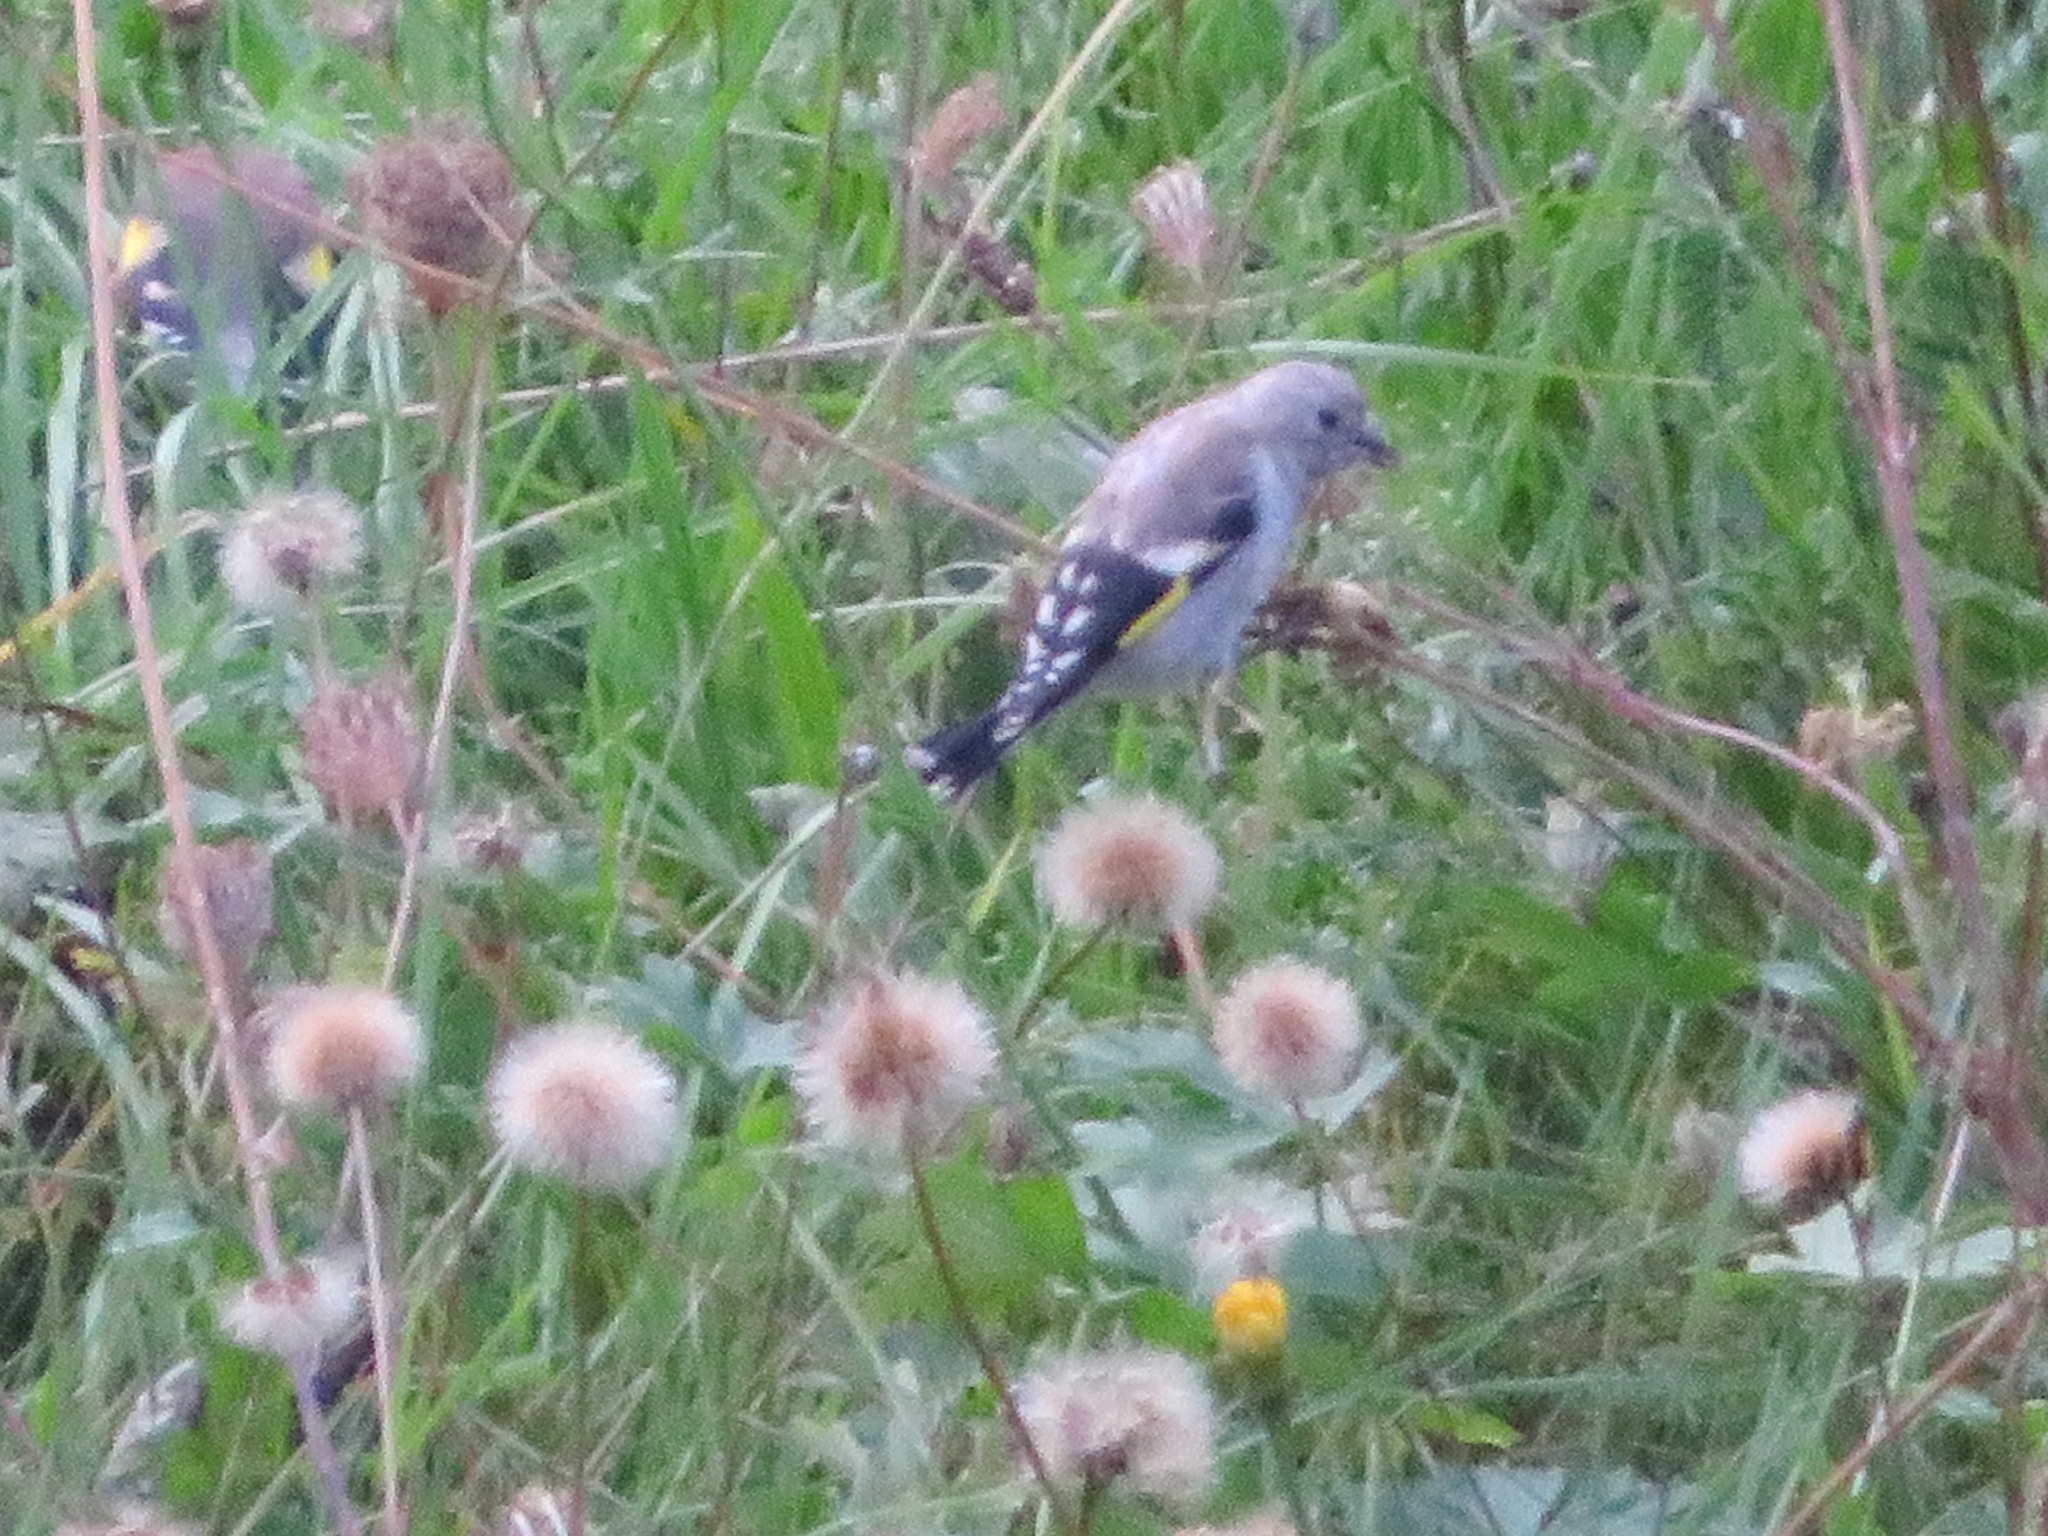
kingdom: Animalia
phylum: Chordata
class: Aves
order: Passeriformes
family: Fringillidae
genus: Carduelis
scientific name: Carduelis carduelis
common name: European goldfinch
